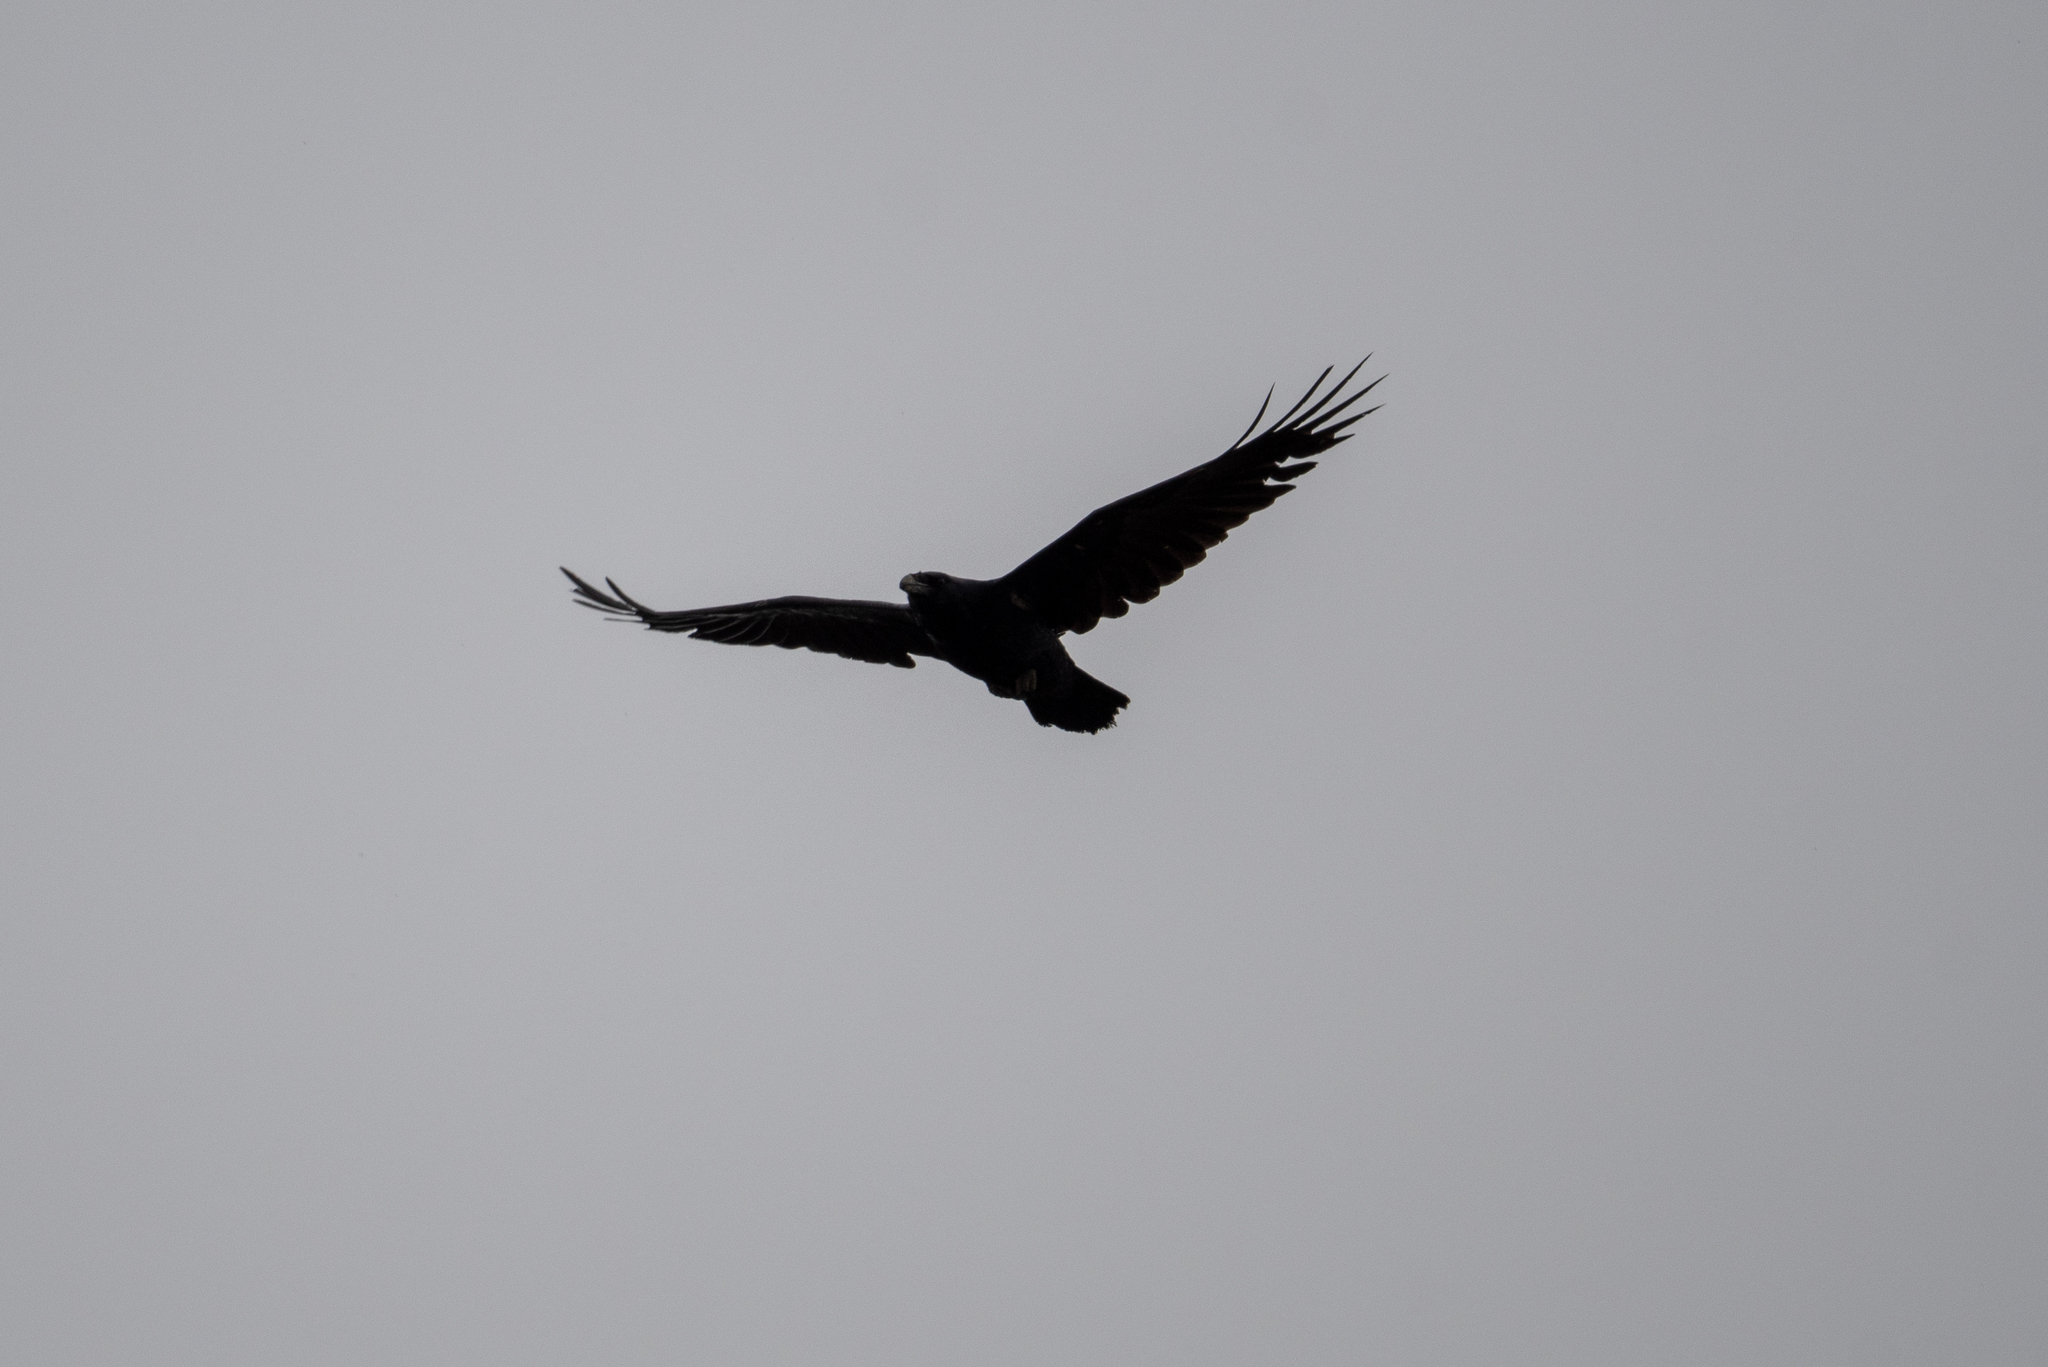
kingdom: Animalia
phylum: Chordata
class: Aves
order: Passeriformes
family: Corvidae
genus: Corvus
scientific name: Corvus corax
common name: Common raven
